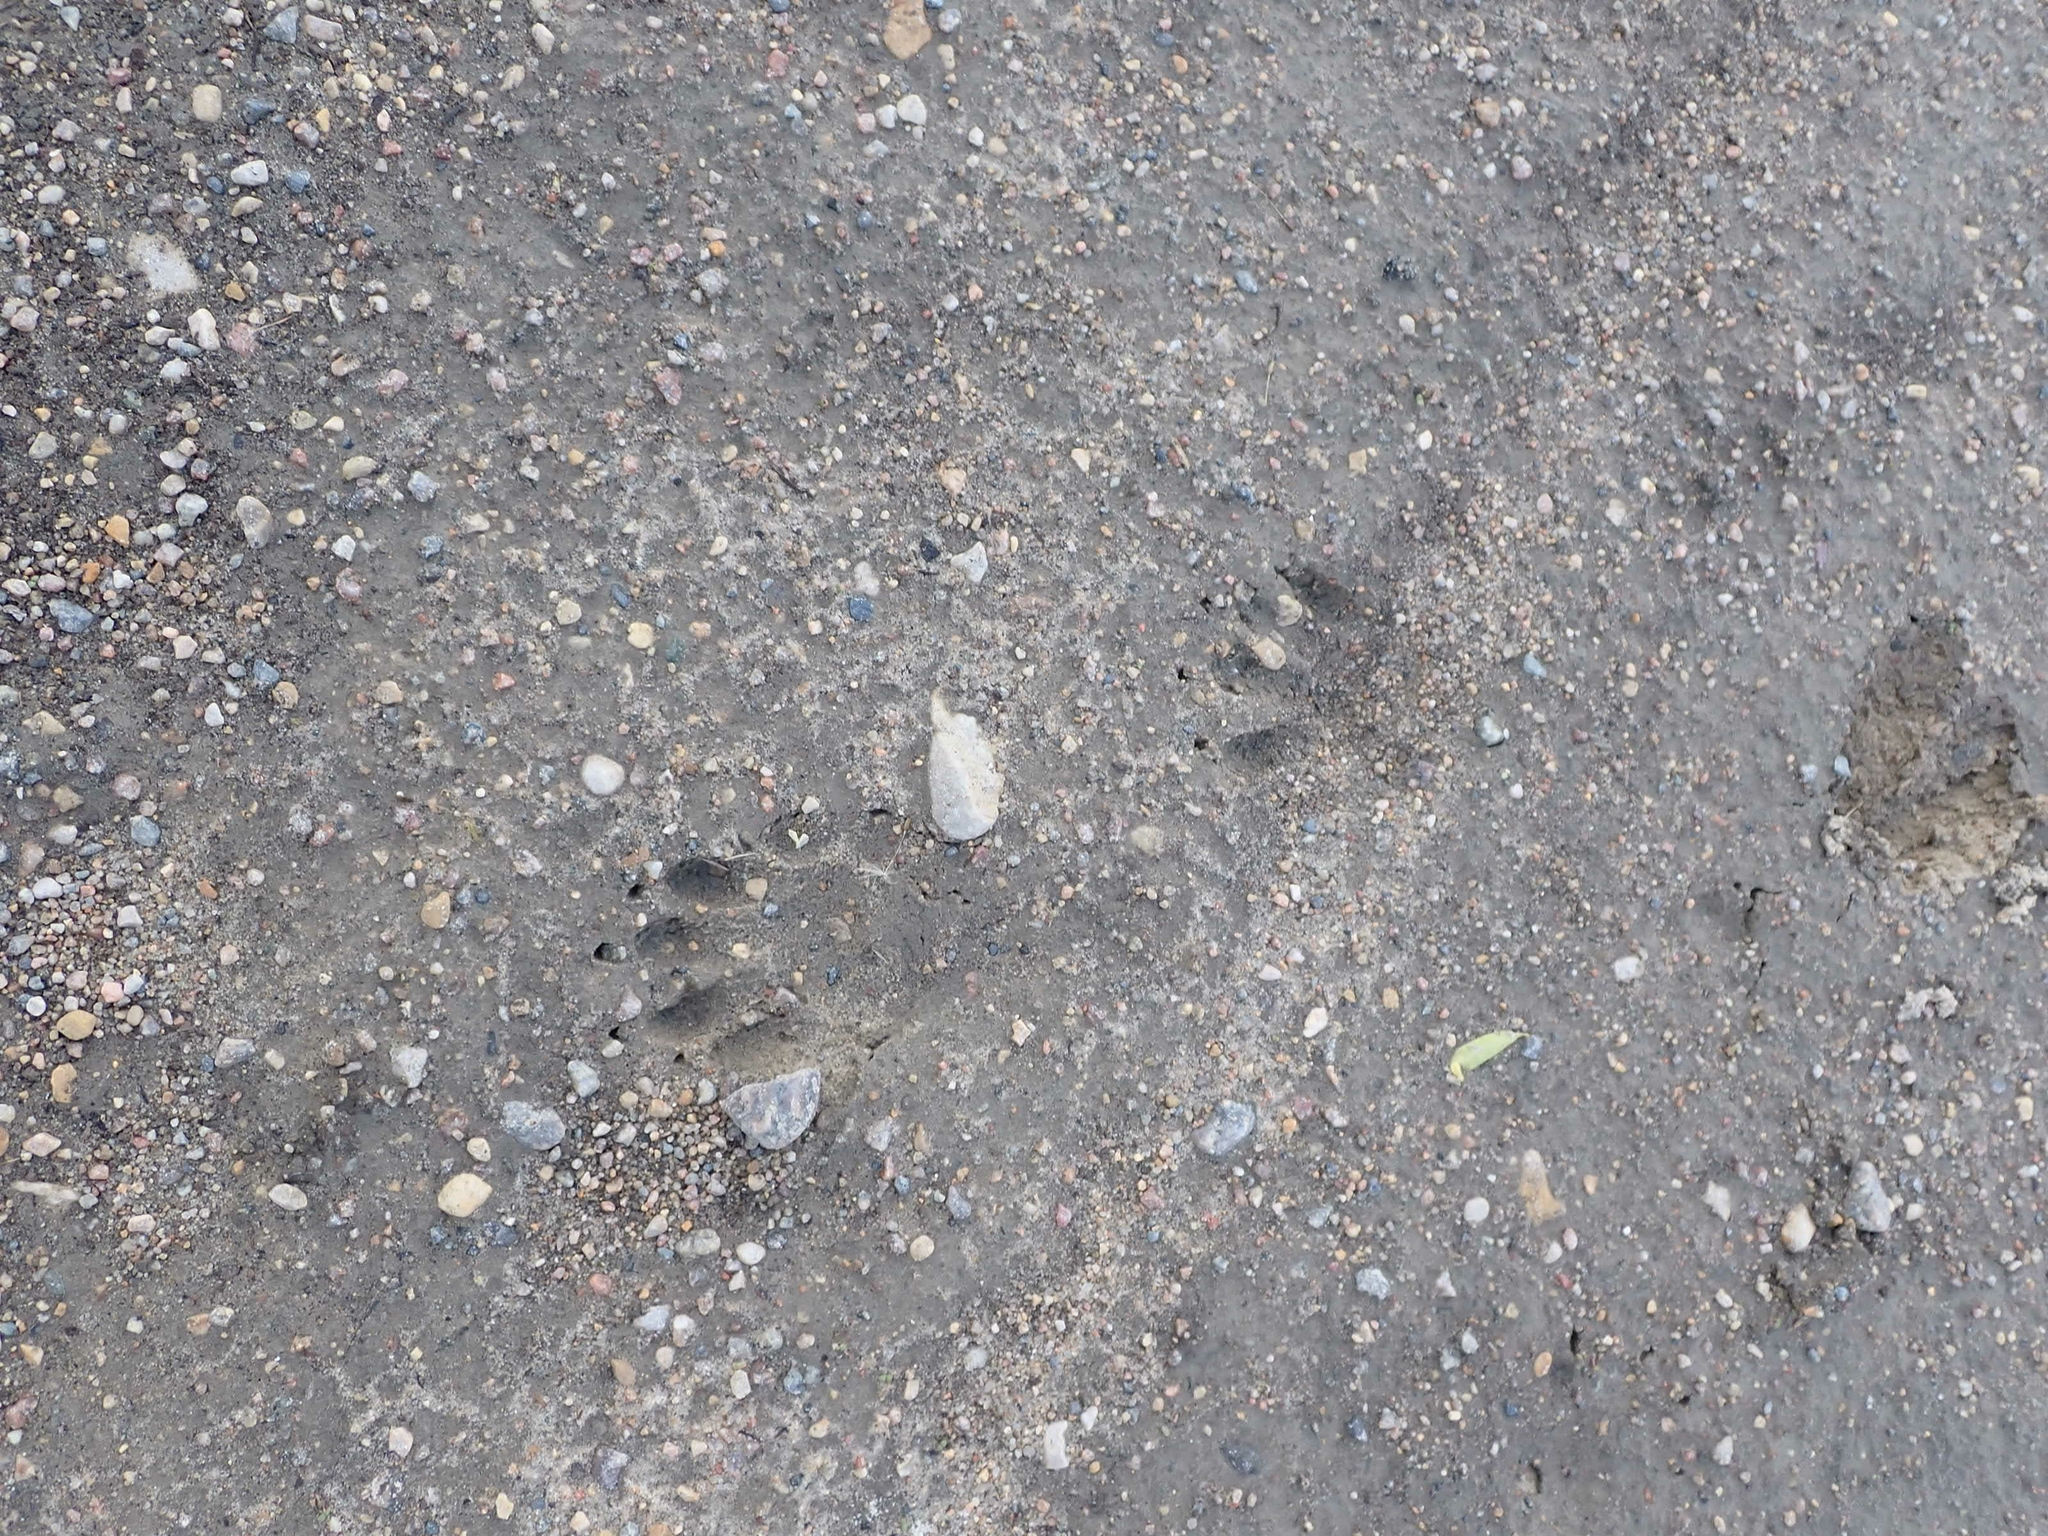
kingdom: Animalia
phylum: Chordata
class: Mammalia
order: Carnivora
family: Procyonidae
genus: Procyon
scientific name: Procyon lotor
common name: Raccoon
